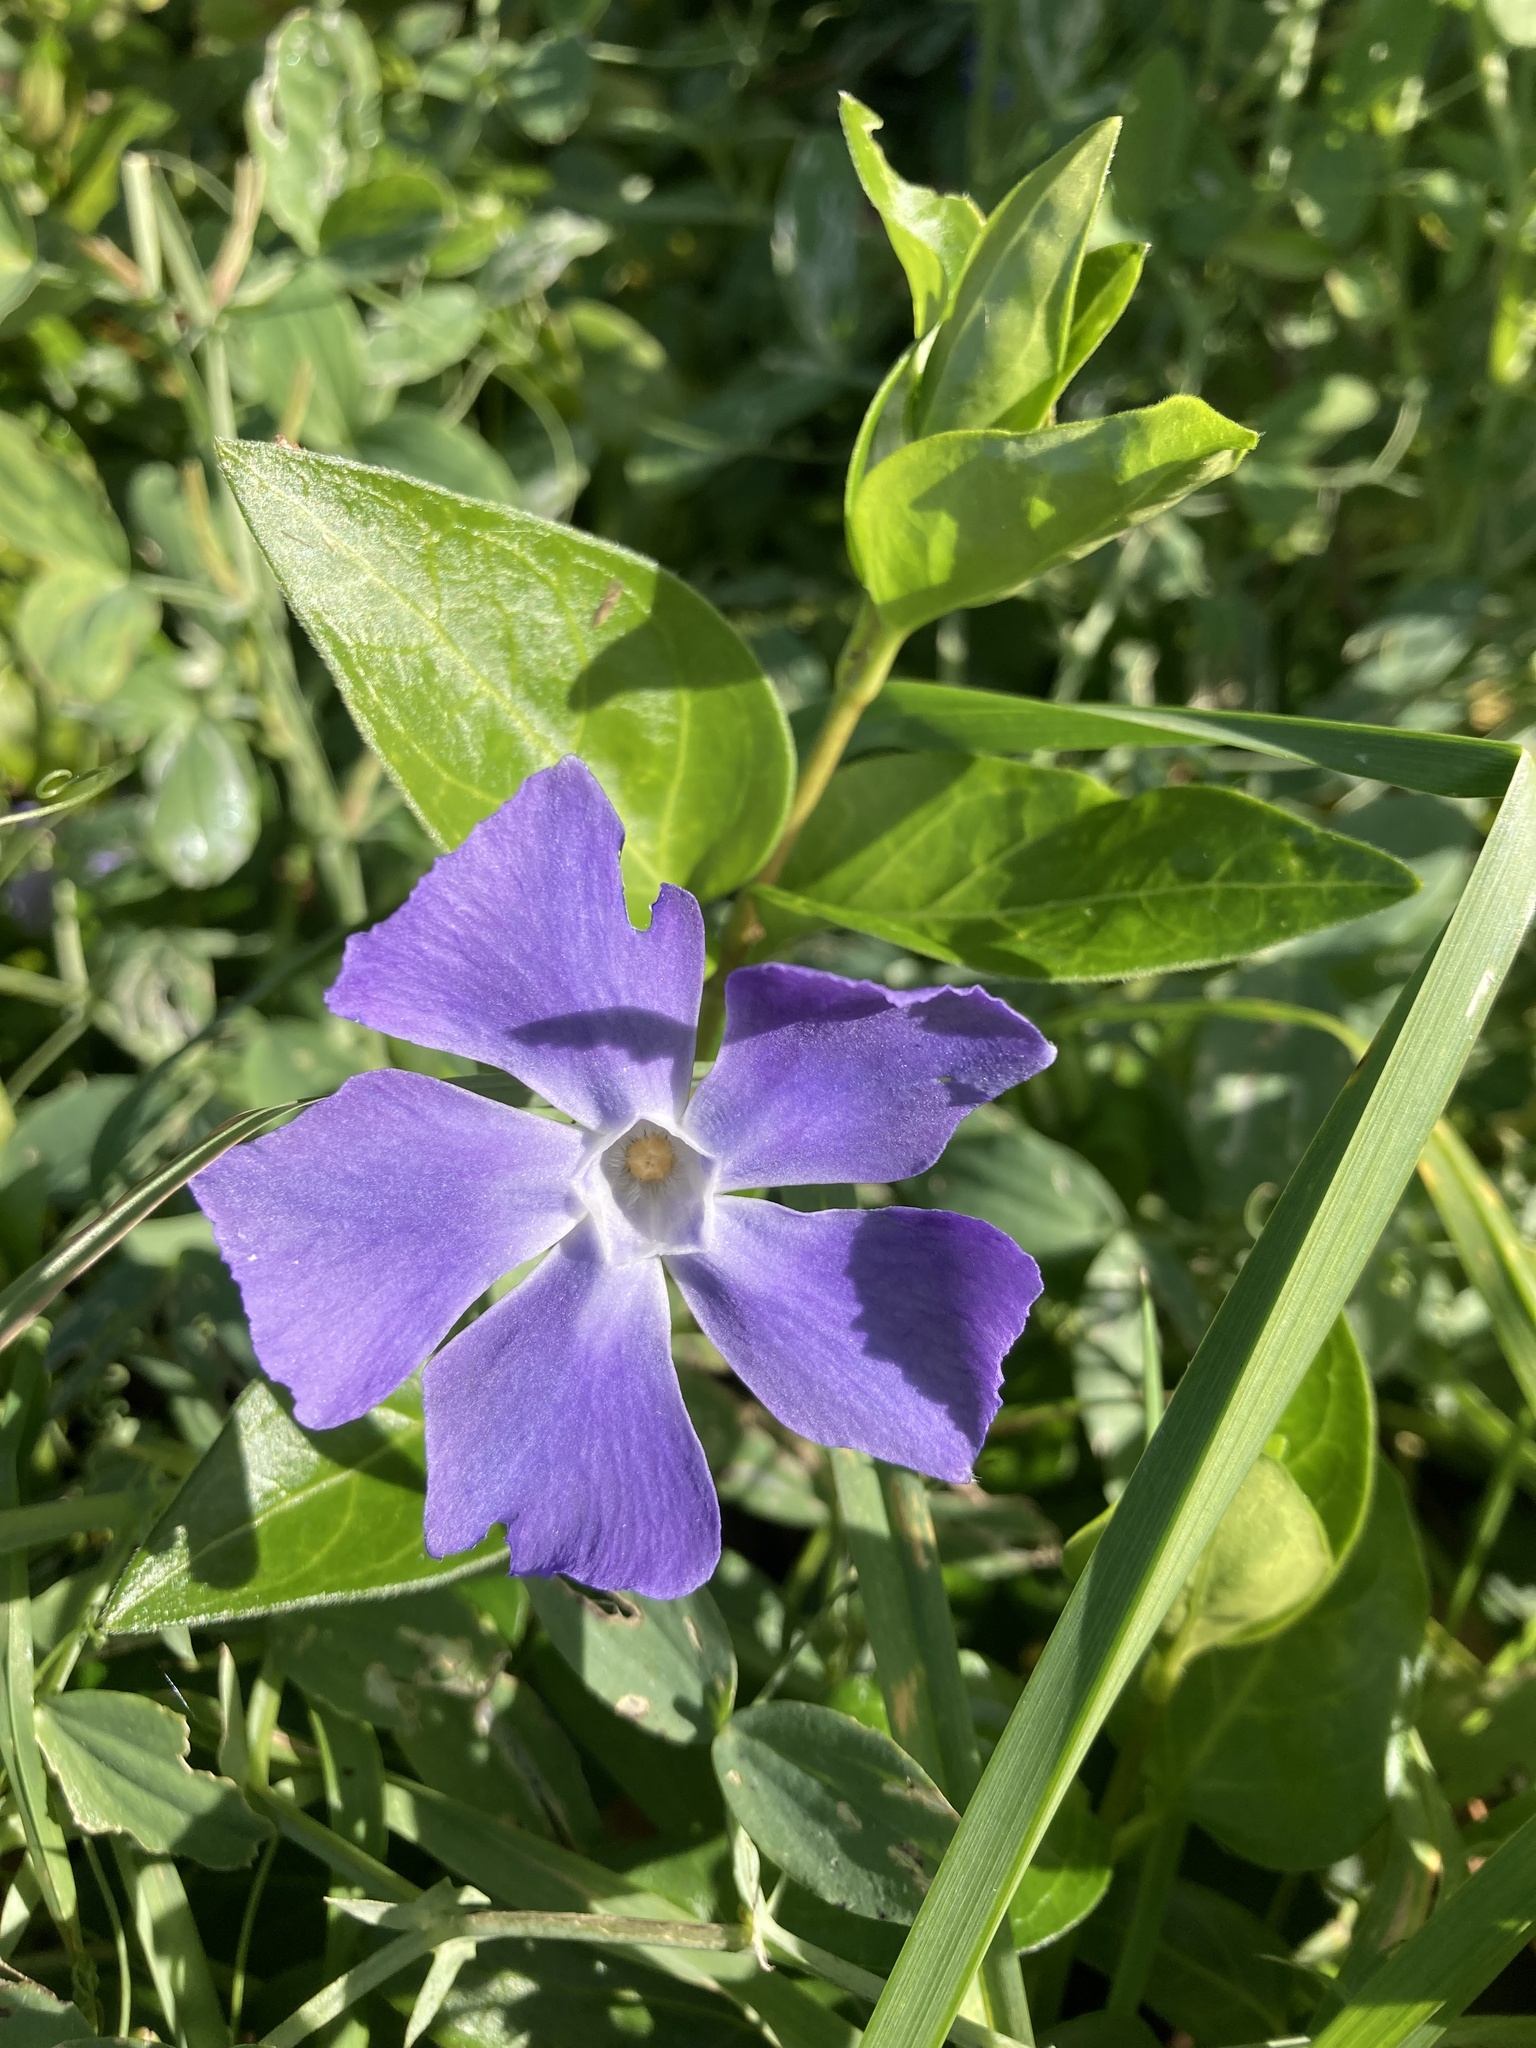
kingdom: Plantae
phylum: Tracheophyta
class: Magnoliopsida
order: Gentianales
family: Apocynaceae
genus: Vinca
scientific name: Vinca major
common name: Greater periwinkle
